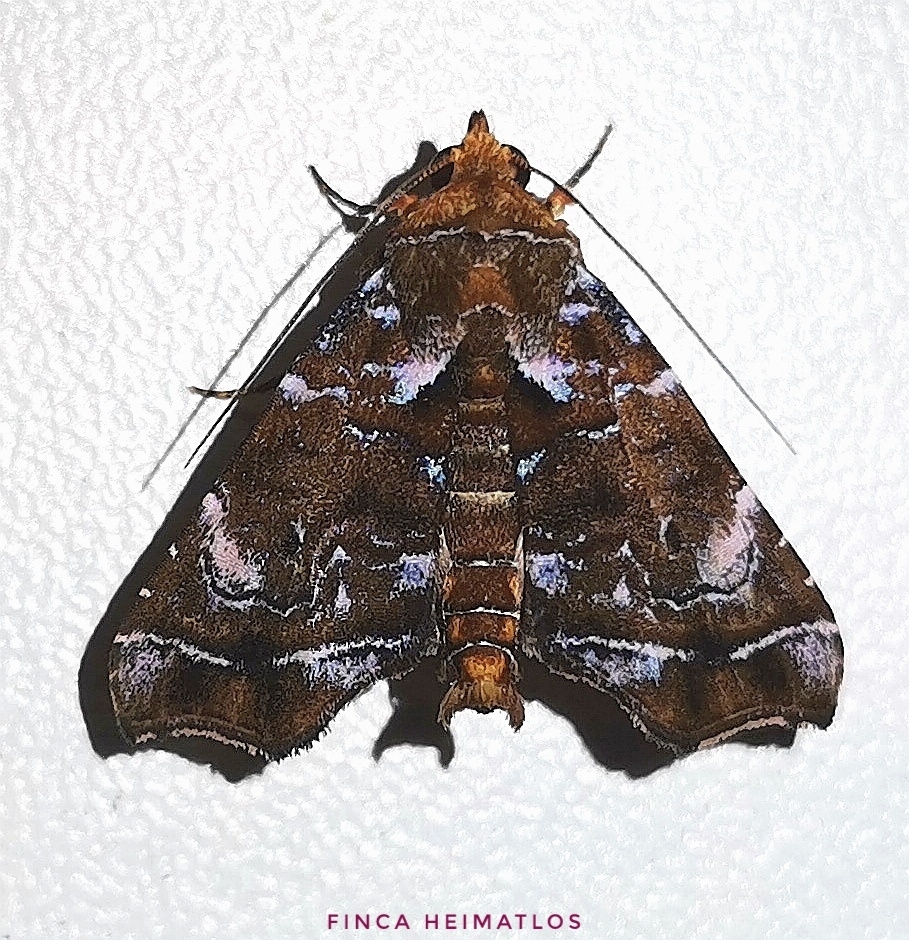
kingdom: Animalia
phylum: Arthropoda
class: Insecta
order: Lepidoptera
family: Erebidae
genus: Cecharismena
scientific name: Cecharismena melicerta
